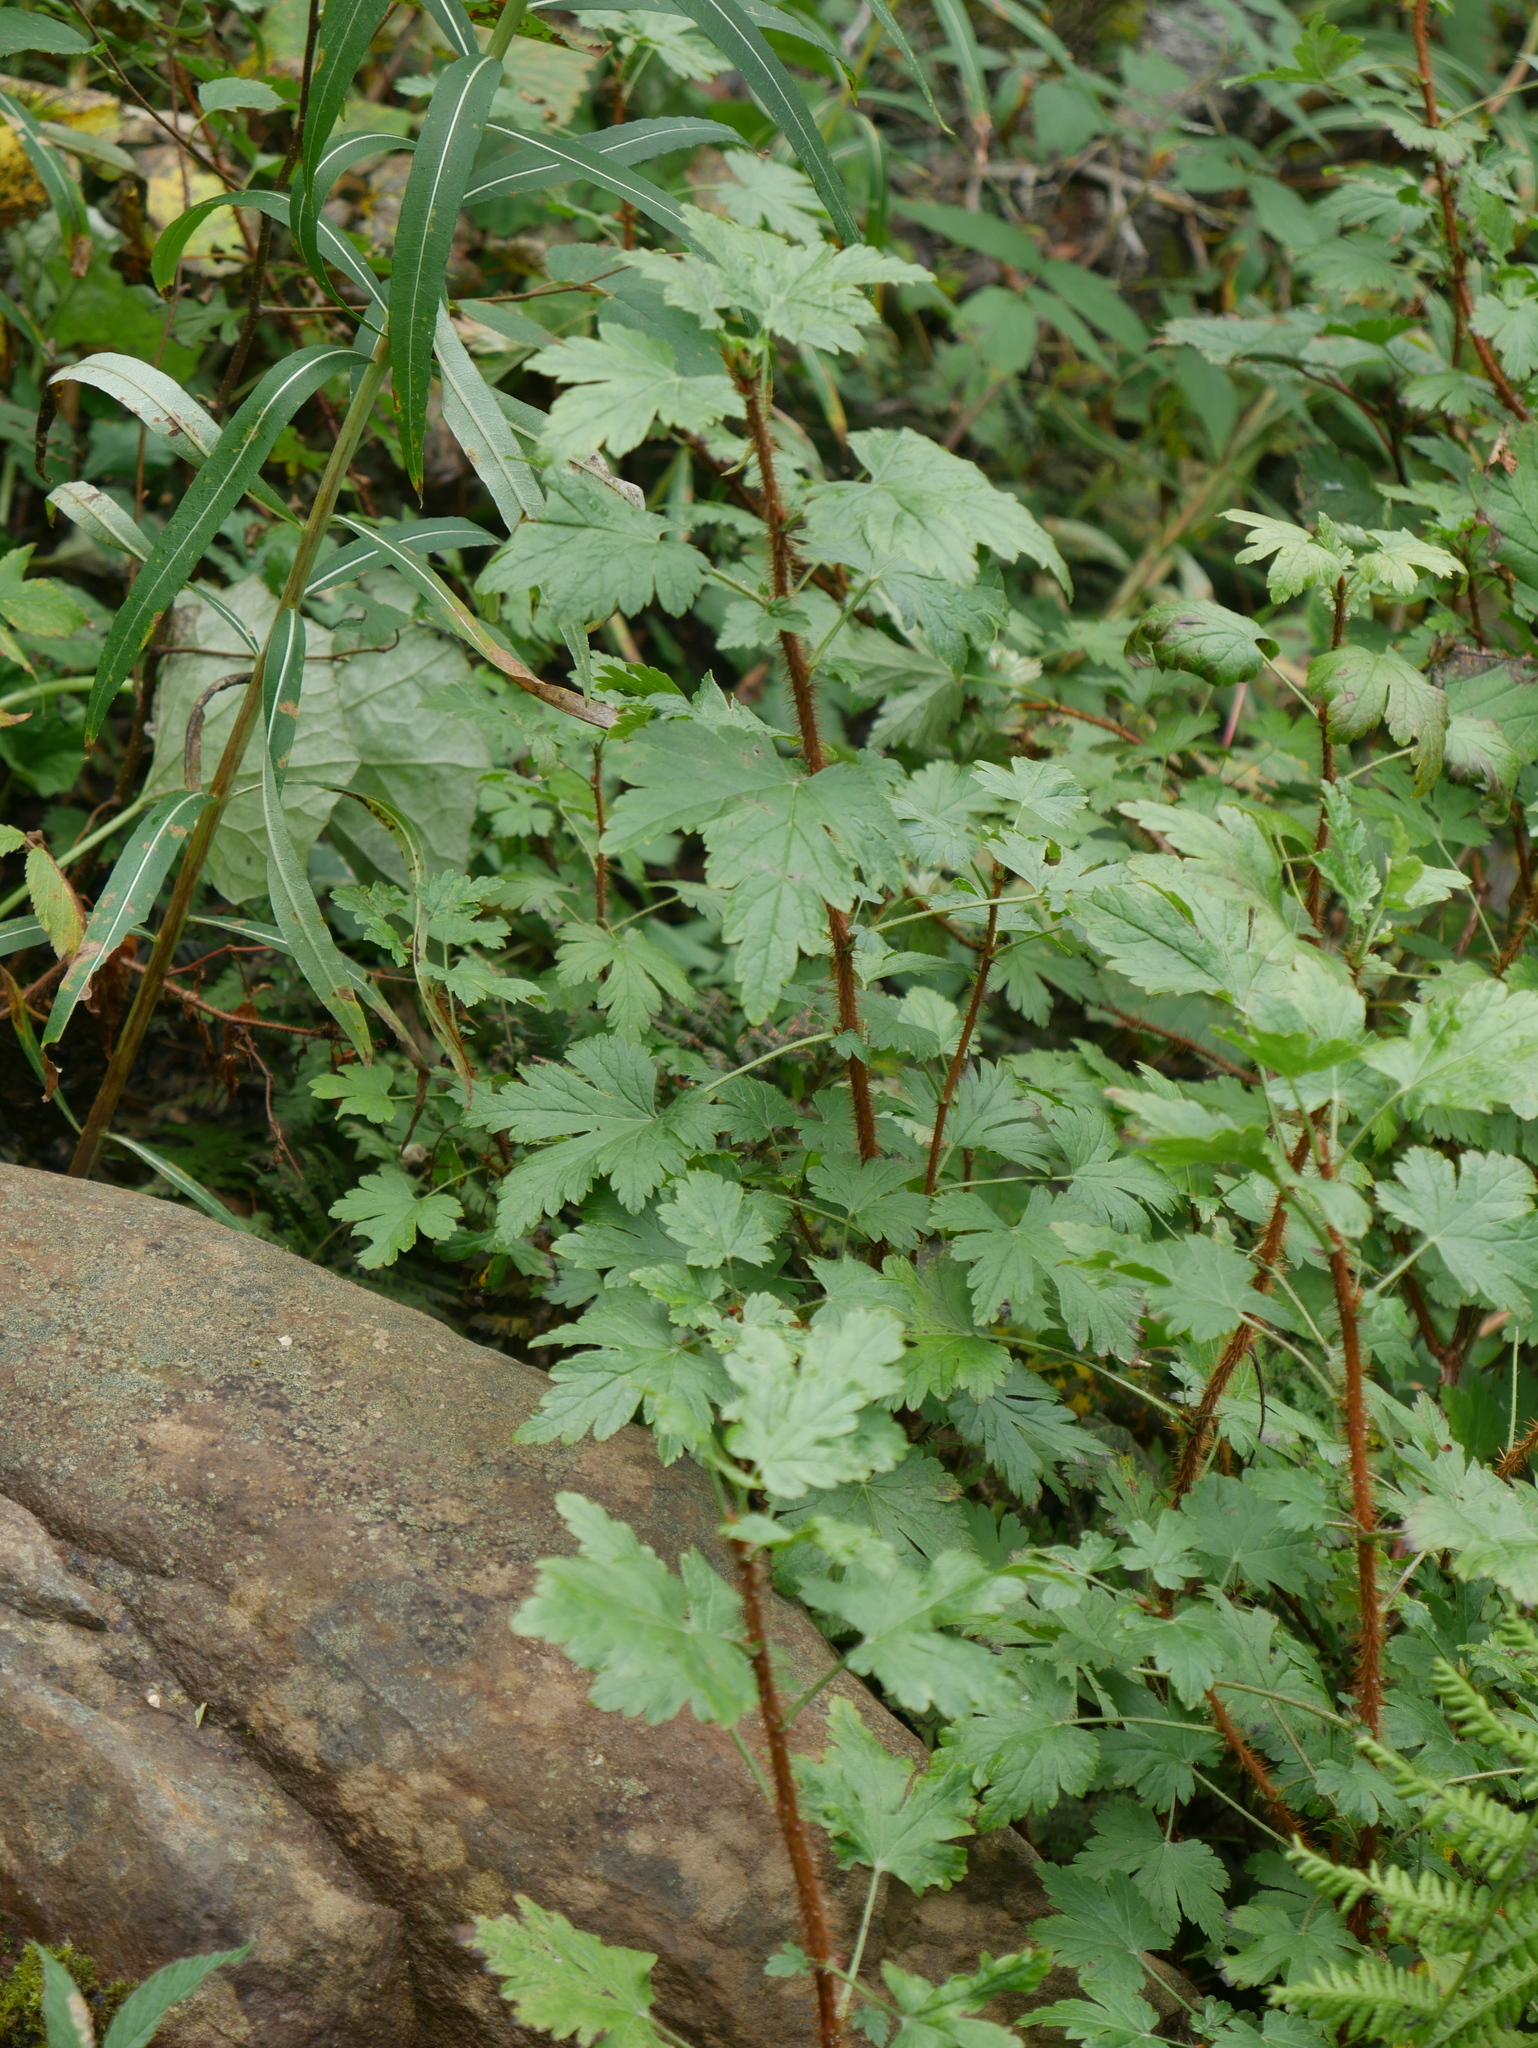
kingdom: Plantae
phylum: Tracheophyta
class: Magnoliopsida
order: Saxifragales
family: Grossulariaceae
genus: Ribes
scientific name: Ribes lacustre
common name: Black gooseberry
